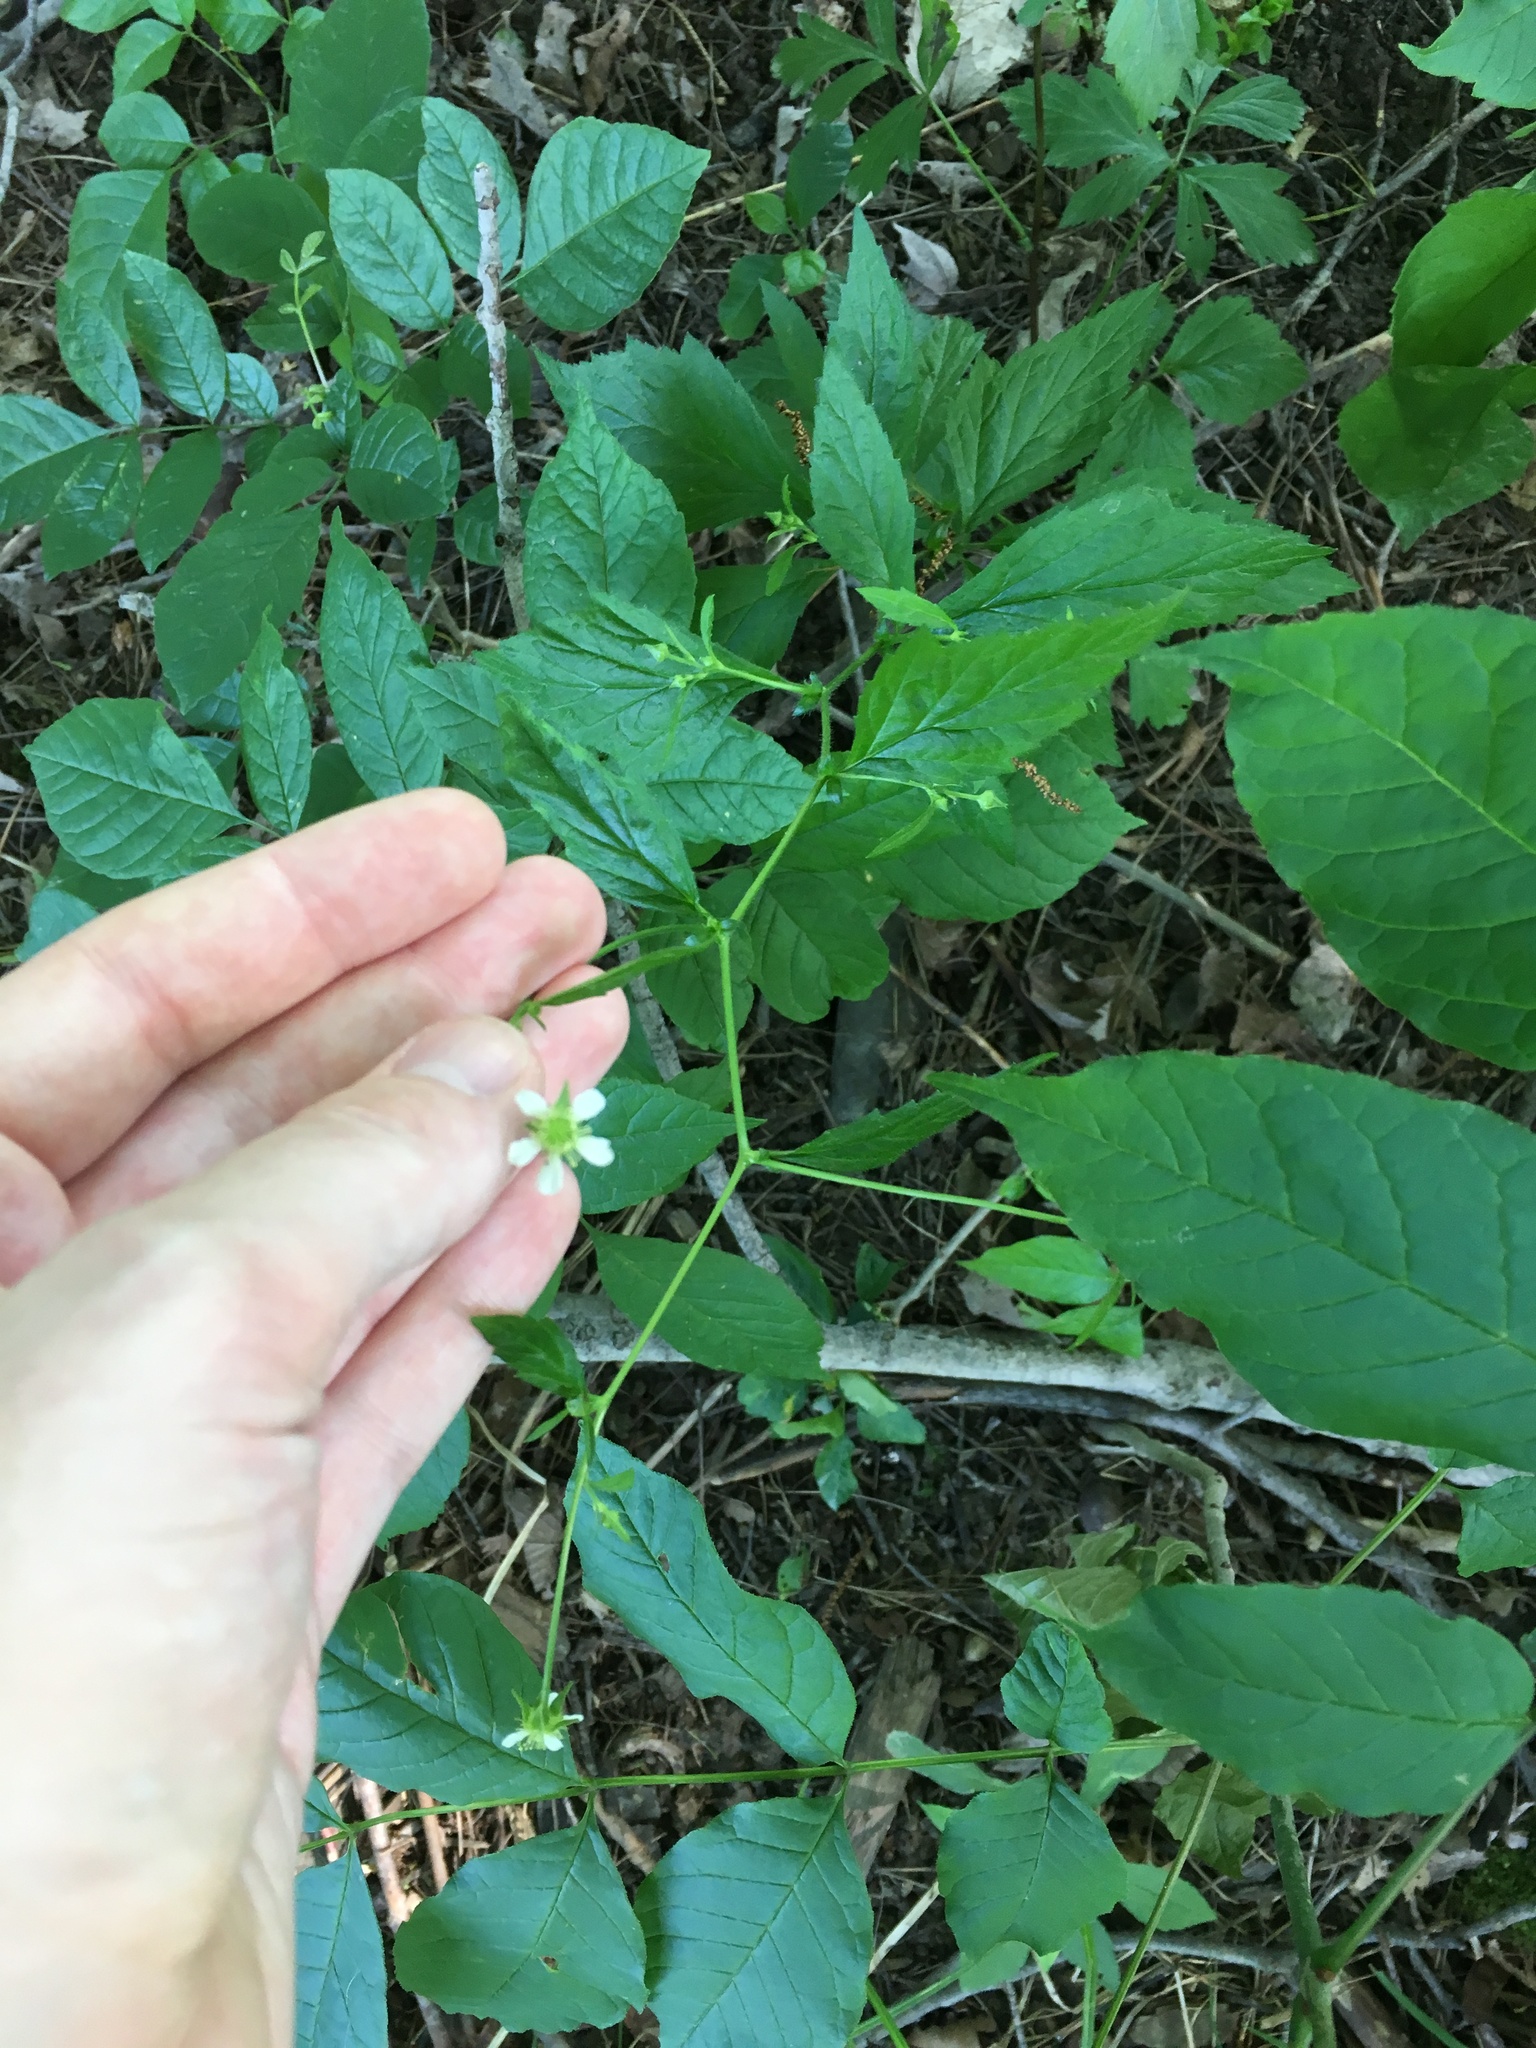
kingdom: Plantae
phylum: Tracheophyta
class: Magnoliopsida
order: Rosales
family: Rosaceae
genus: Geum
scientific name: Geum canadense
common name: White avens
